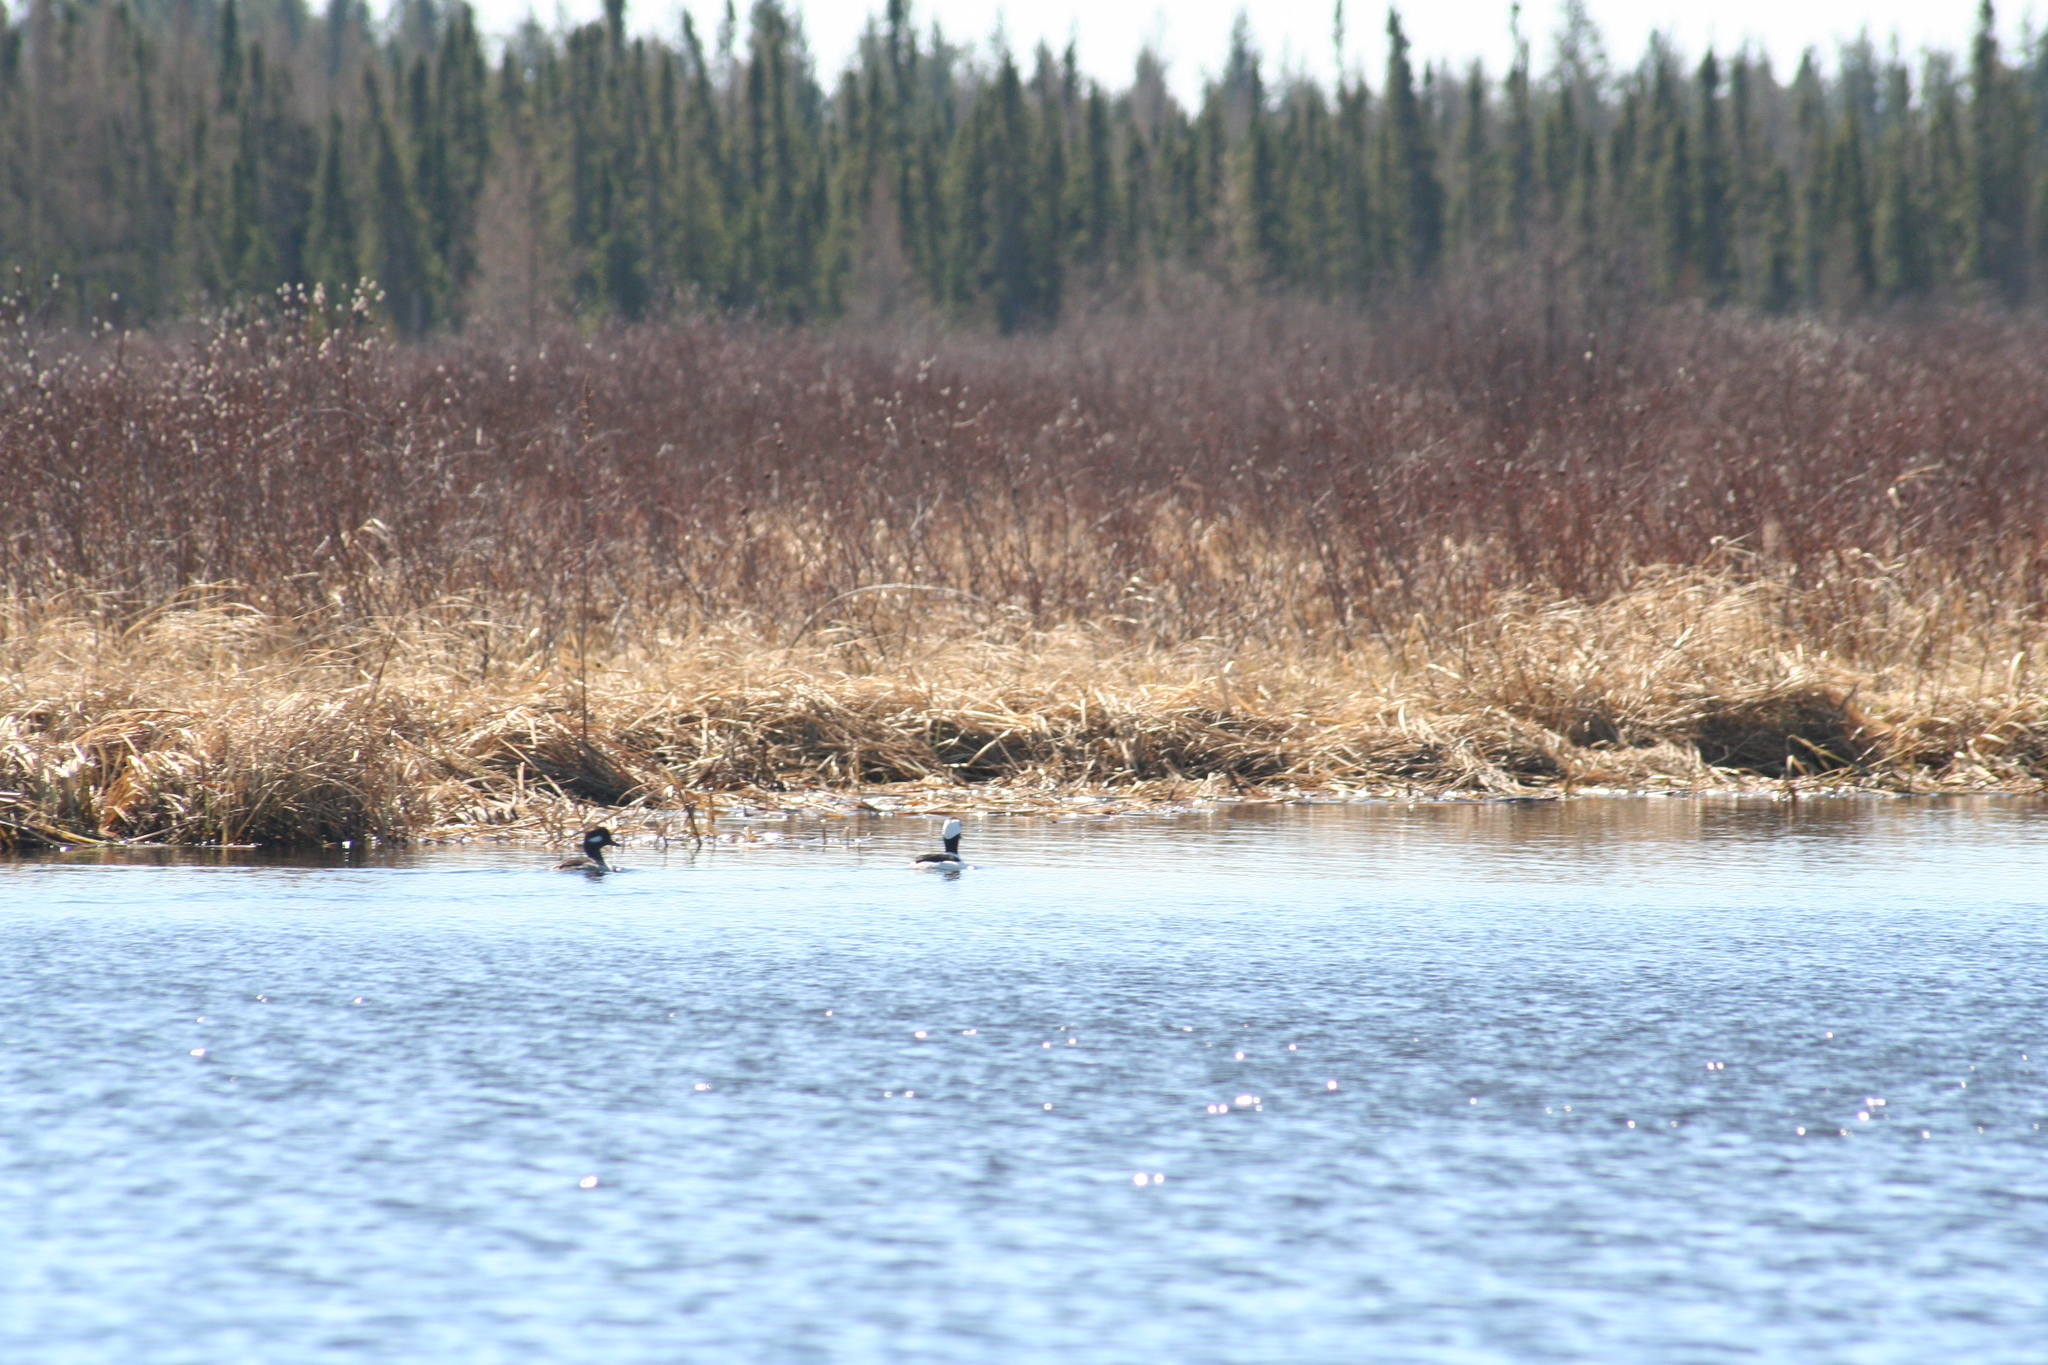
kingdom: Animalia
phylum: Chordata
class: Aves
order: Anseriformes
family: Anatidae
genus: Bucephala
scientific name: Bucephala albeola
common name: Bufflehead
